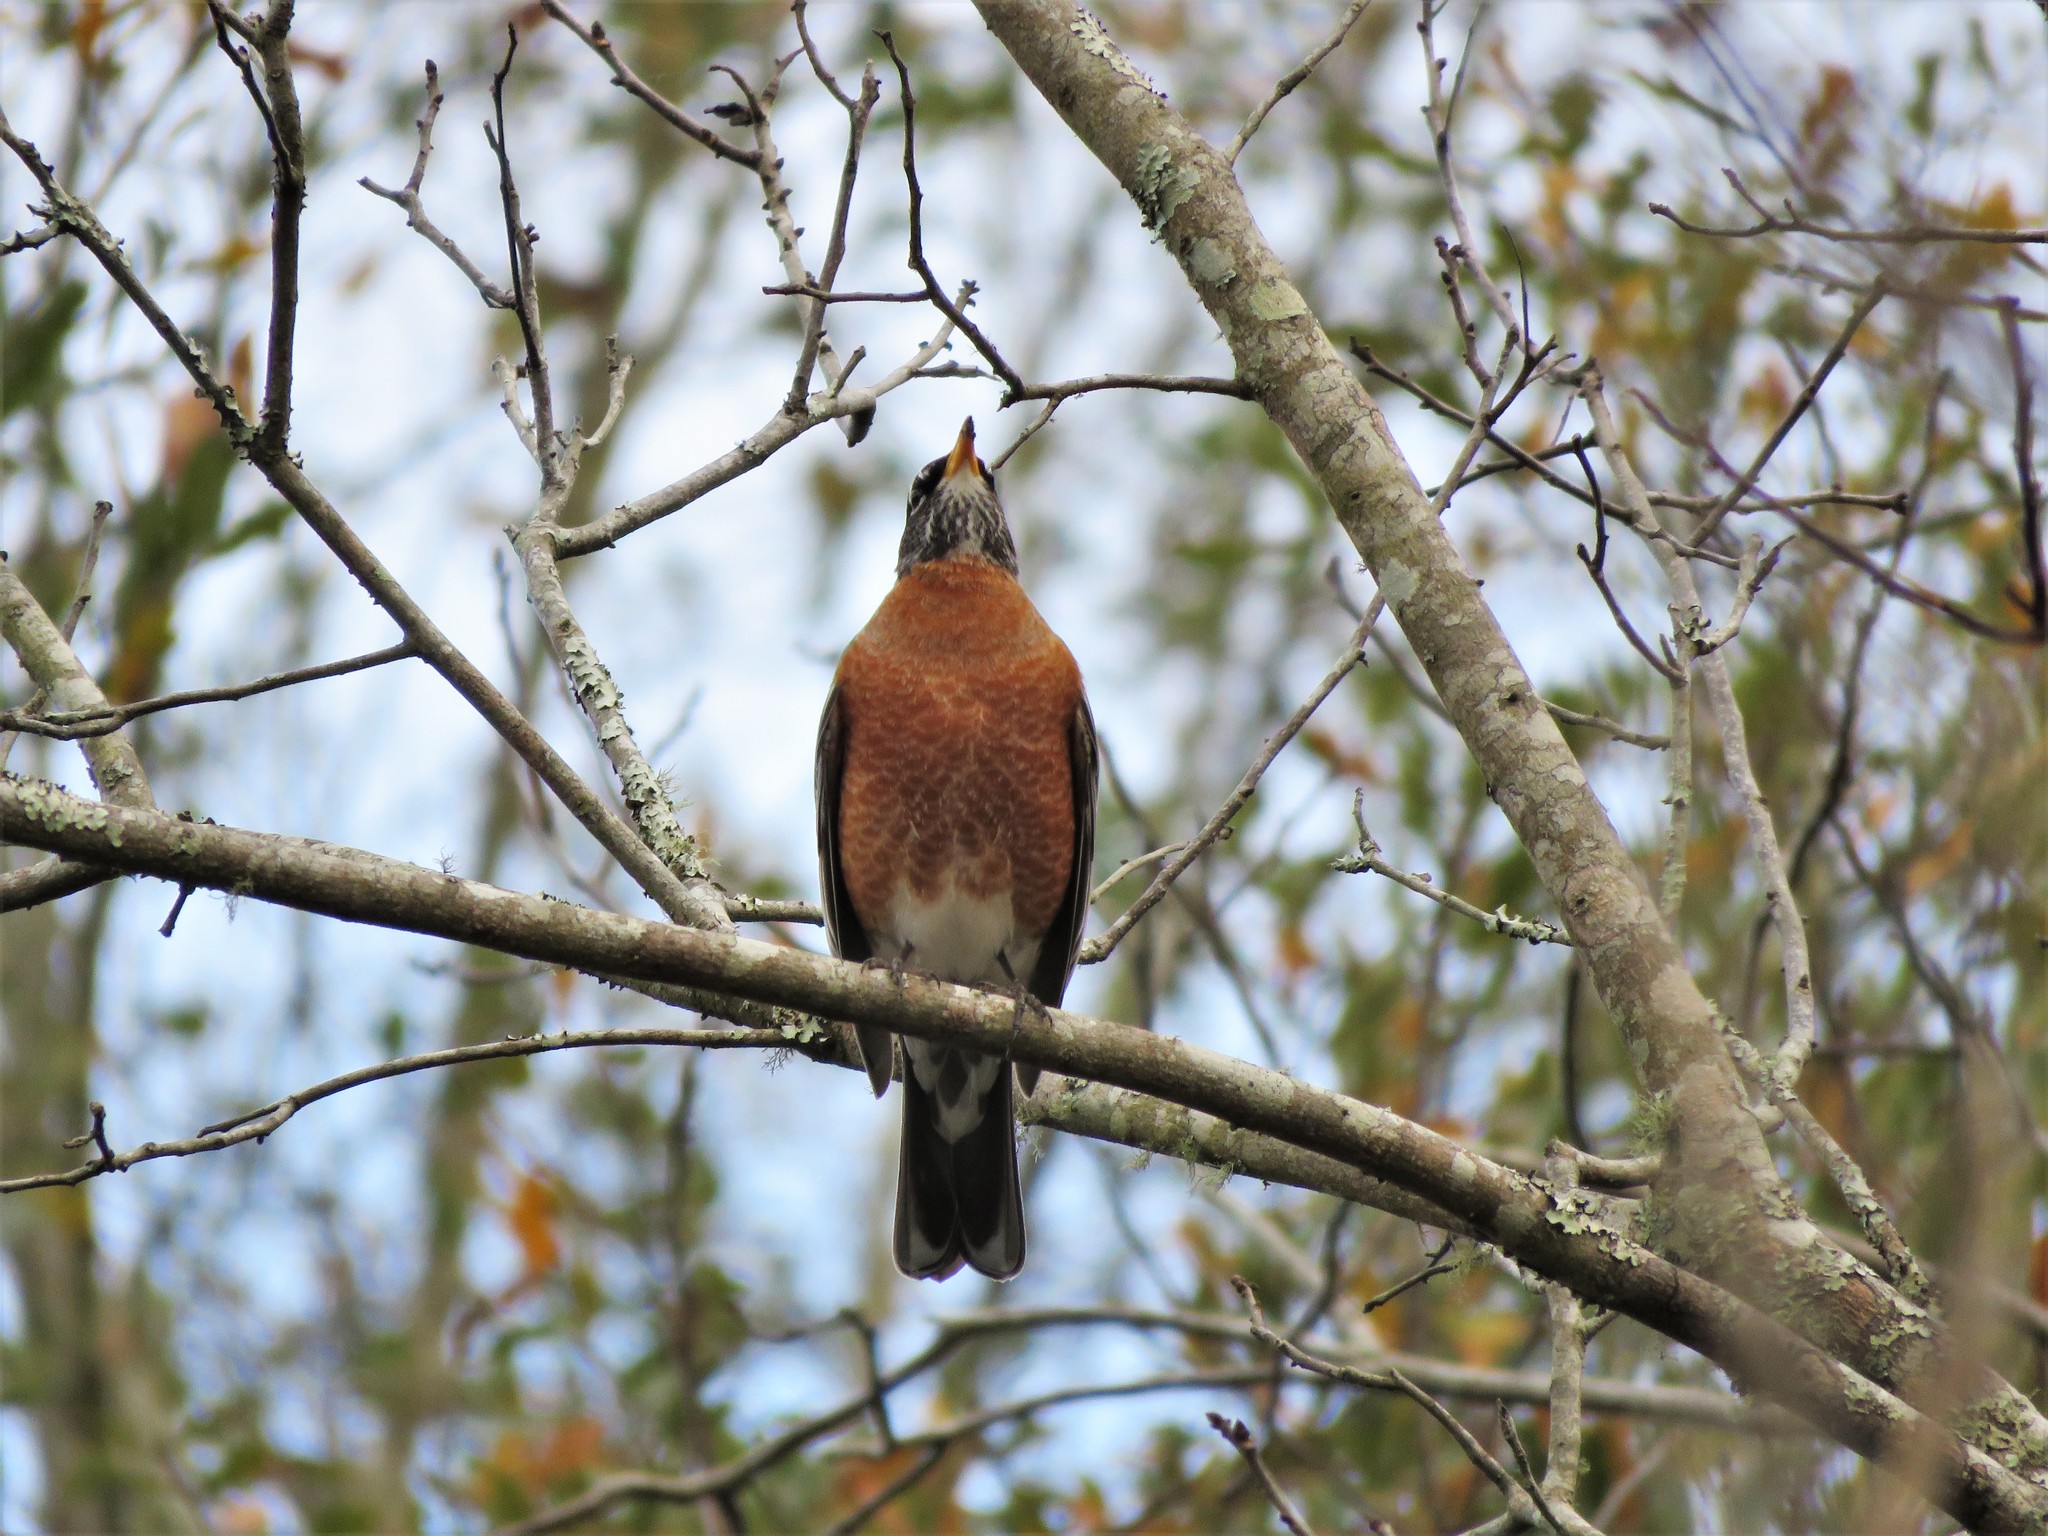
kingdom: Animalia
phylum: Chordata
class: Aves
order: Passeriformes
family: Turdidae
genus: Turdus
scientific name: Turdus migratorius
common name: American robin
